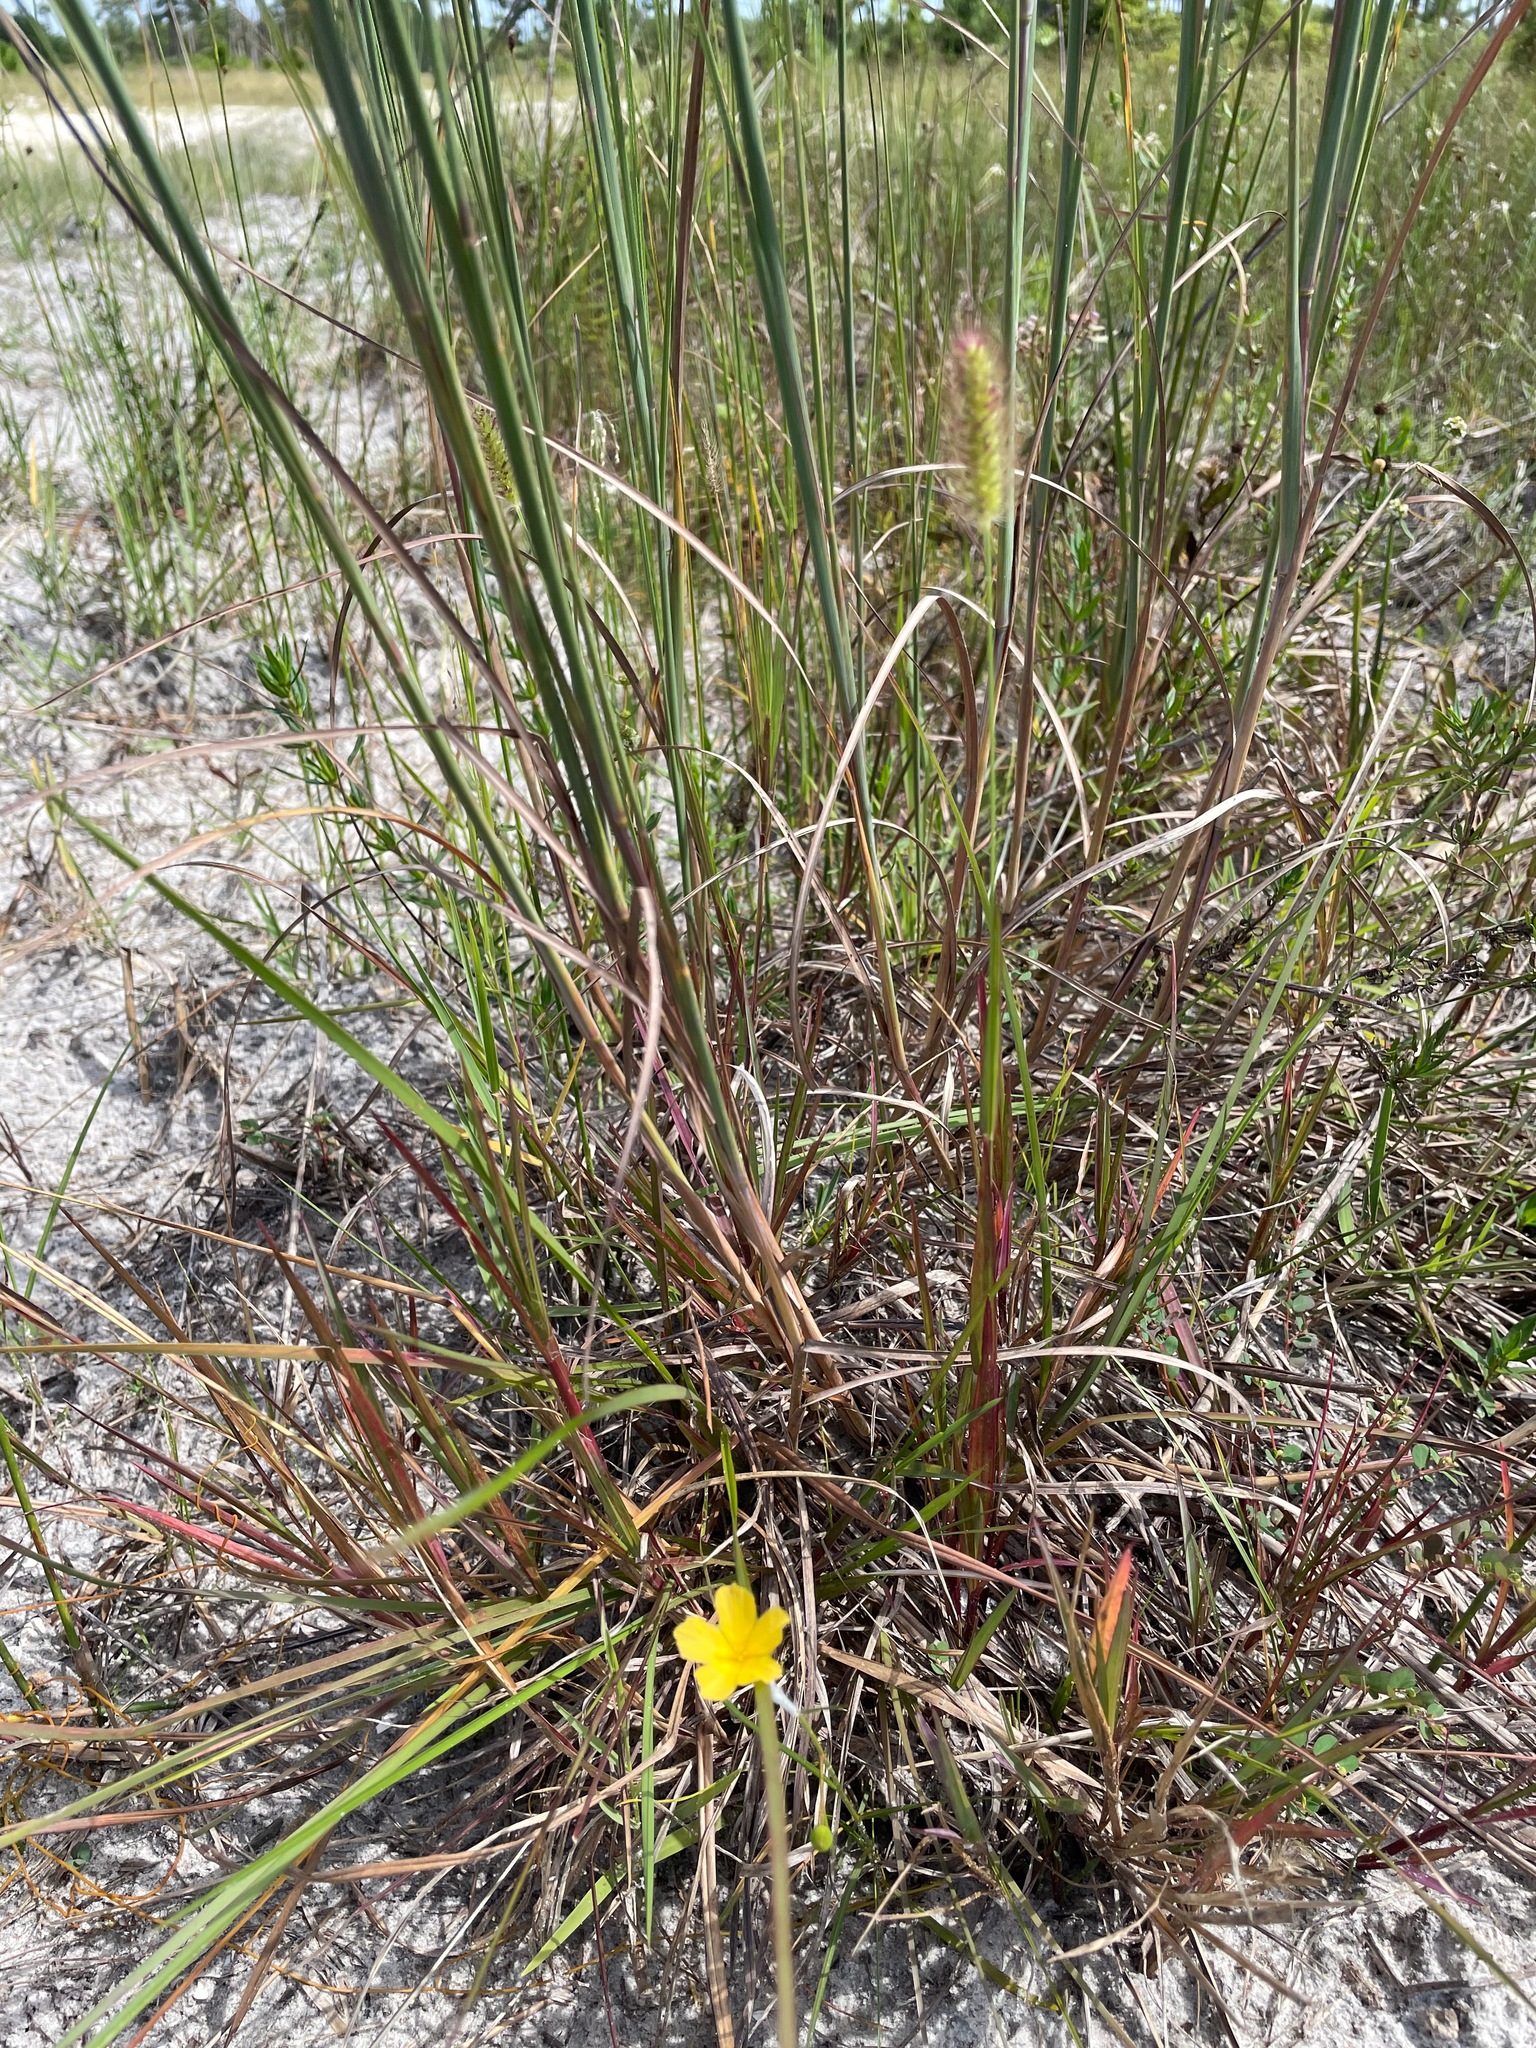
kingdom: Plantae
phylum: Tracheophyta
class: Magnoliopsida
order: Malpighiales
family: Turneraceae
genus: Piriqueta
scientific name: Piriqueta cistoides
